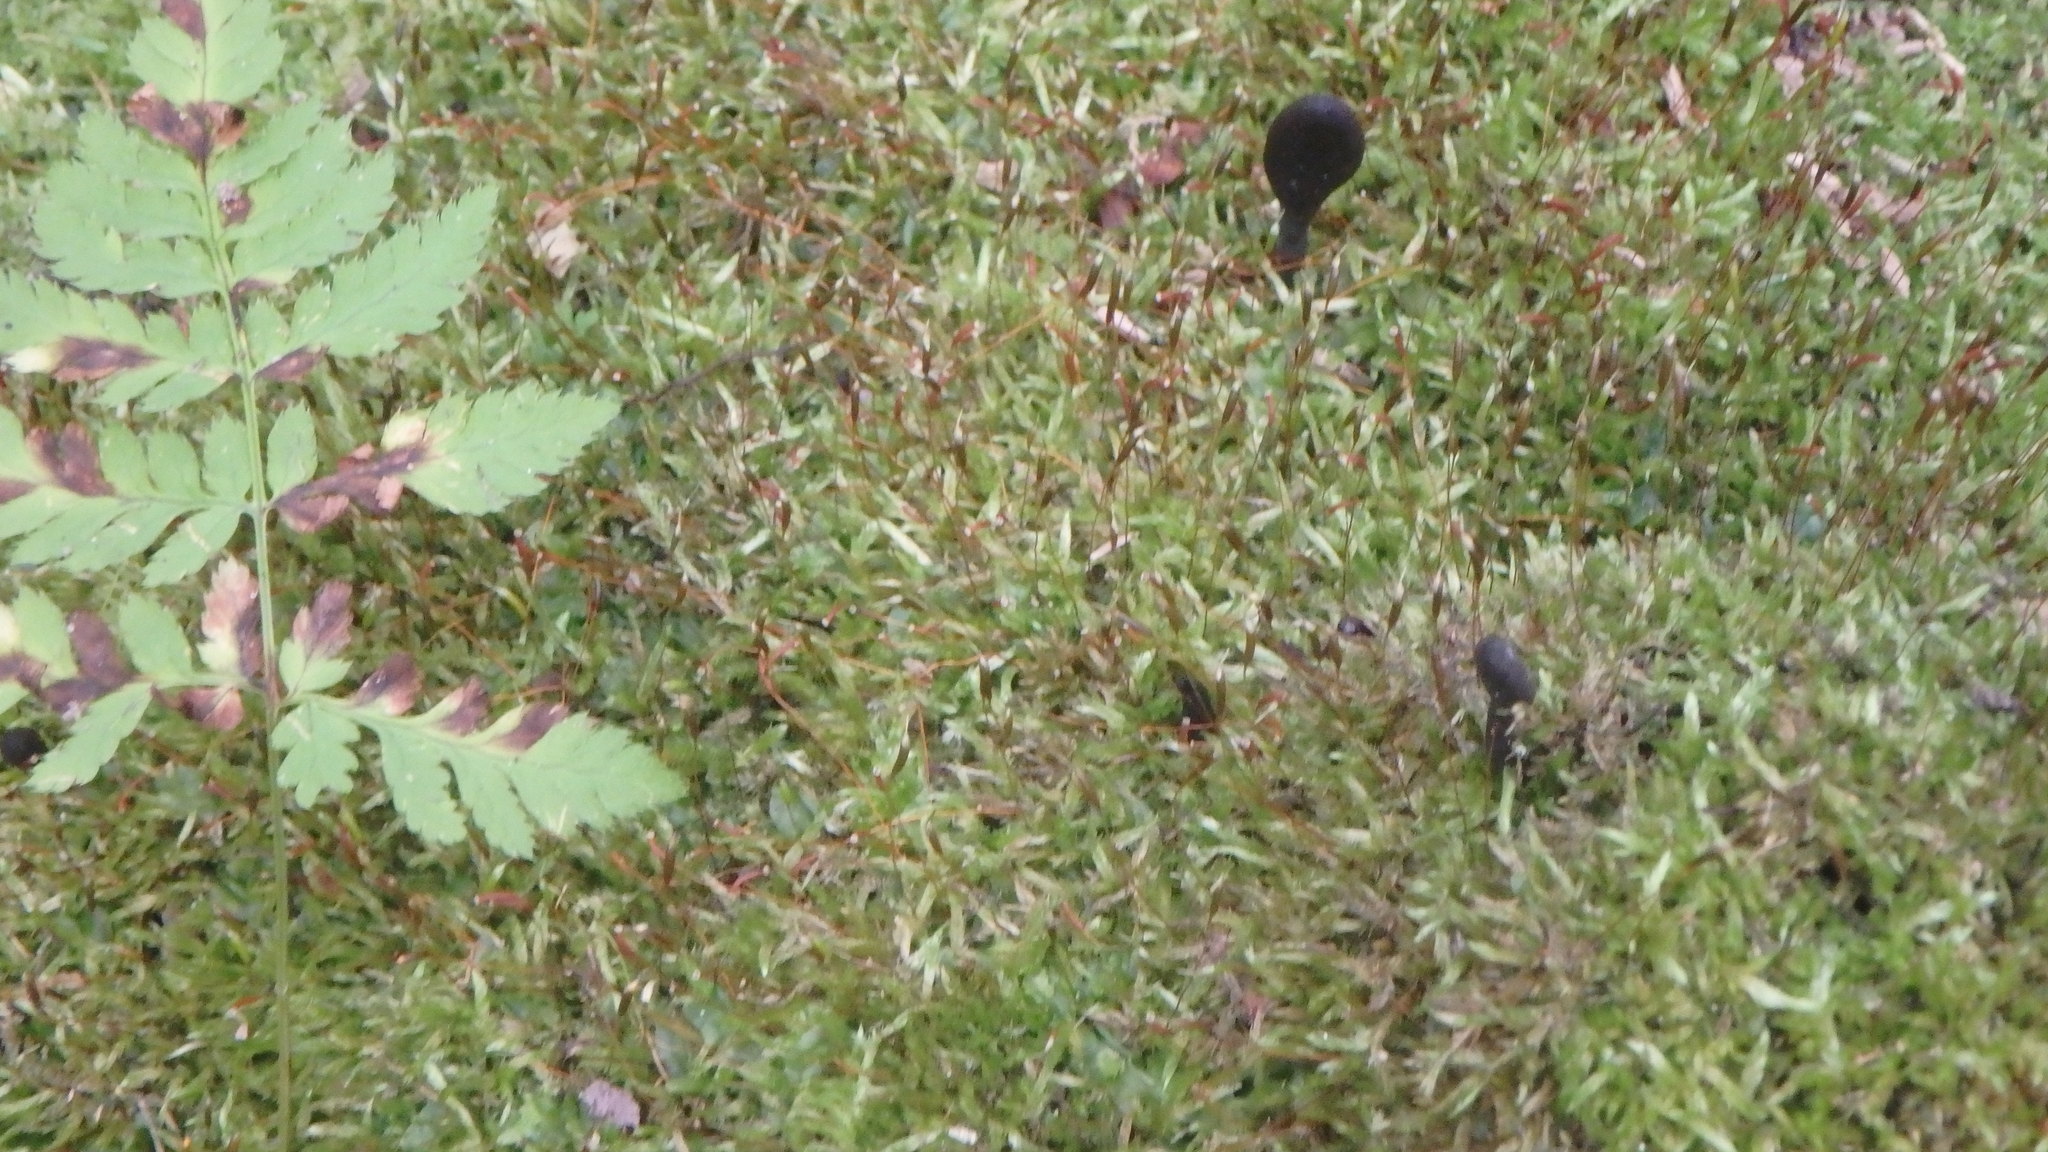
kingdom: Fungi
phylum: Ascomycota
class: Geoglossomycetes
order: Geoglossales
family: Geoglossaceae
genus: Trichoglossum
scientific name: Trichoglossum hirsutum
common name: Hairy earthtongue
